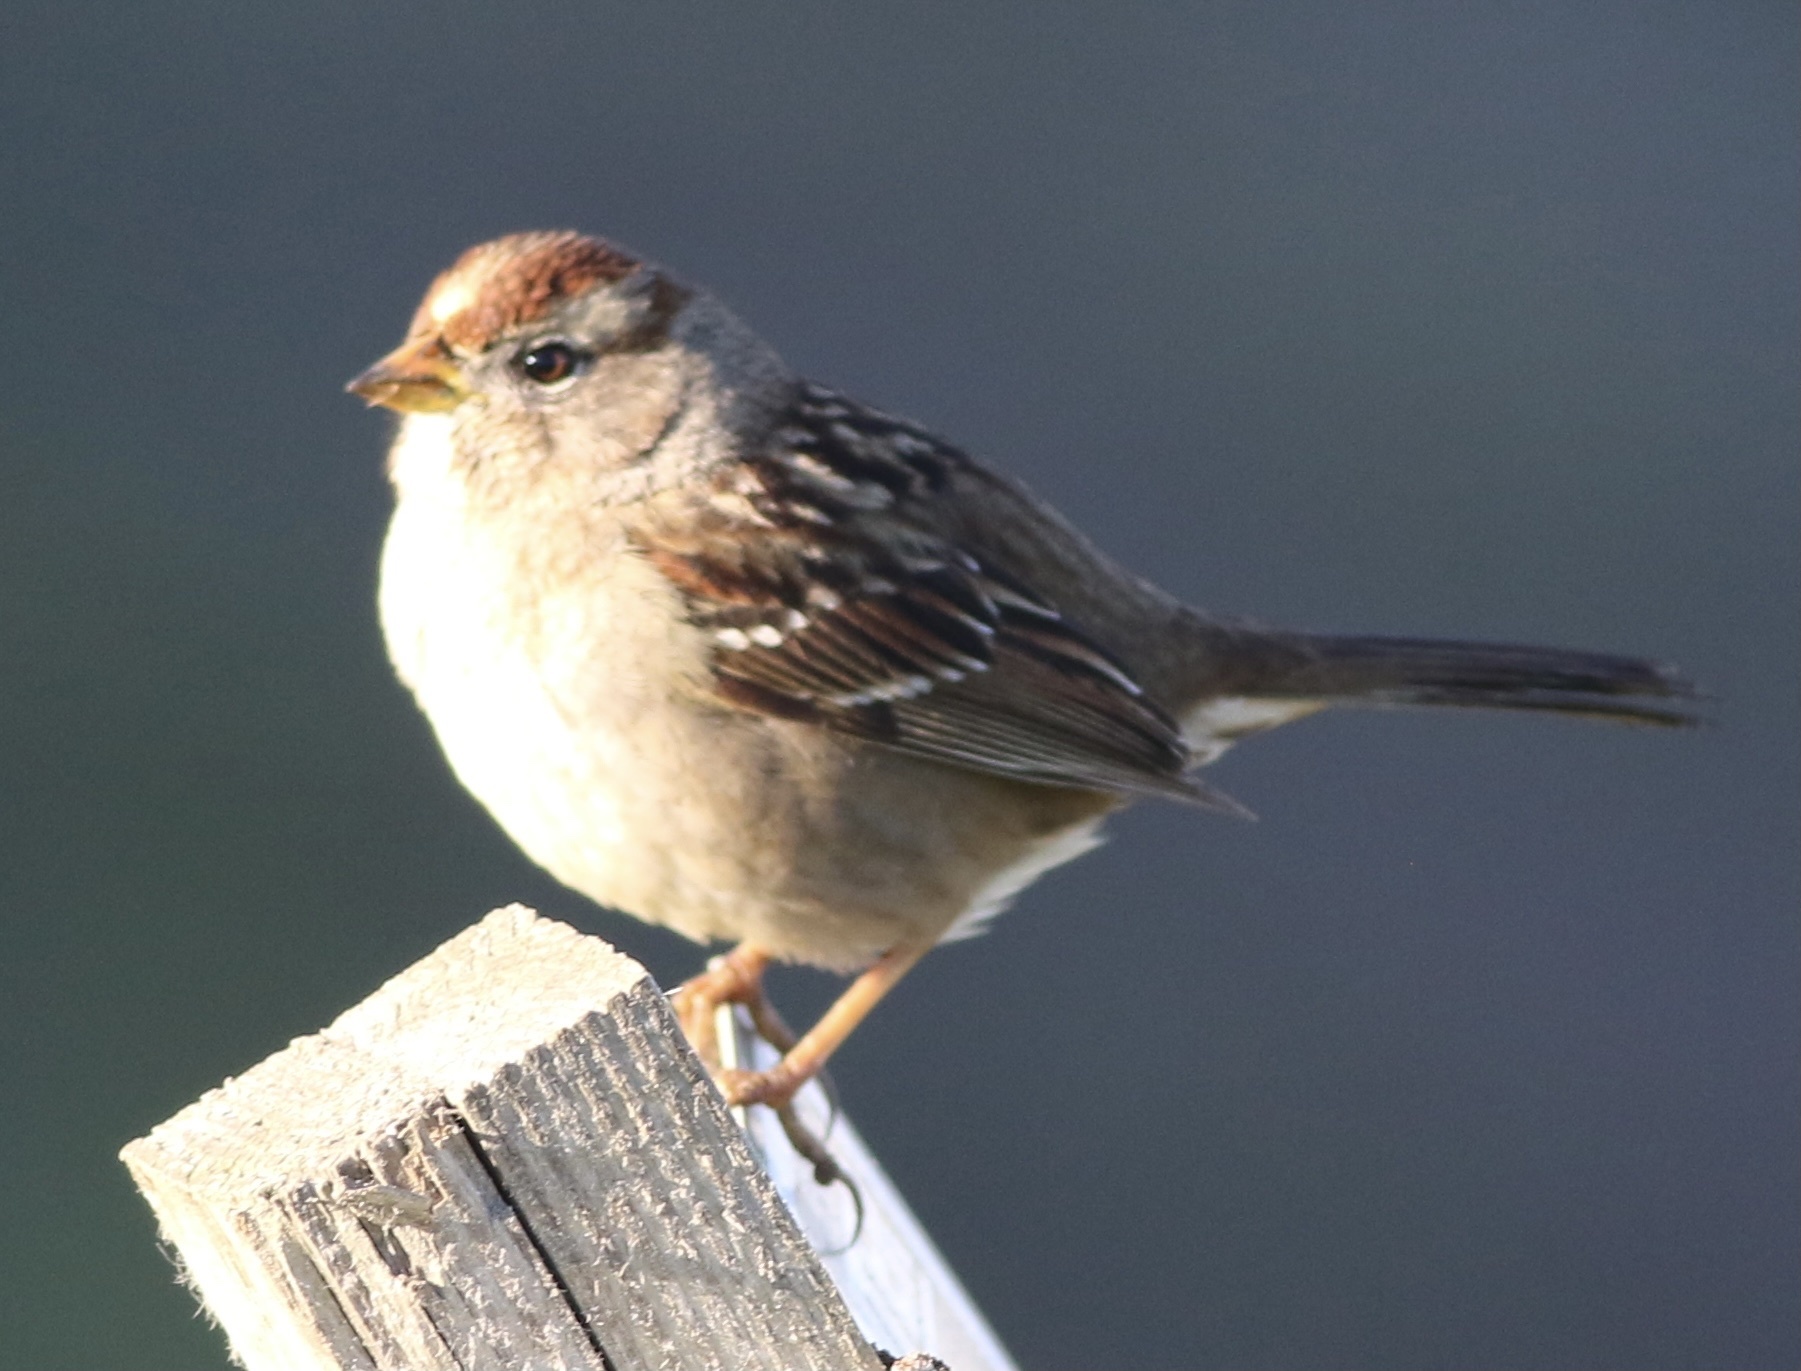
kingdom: Animalia
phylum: Chordata
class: Aves
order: Passeriformes
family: Passerellidae
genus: Zonotrichia
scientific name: Zonotrichia leucophrys
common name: White-crowned sparrow
